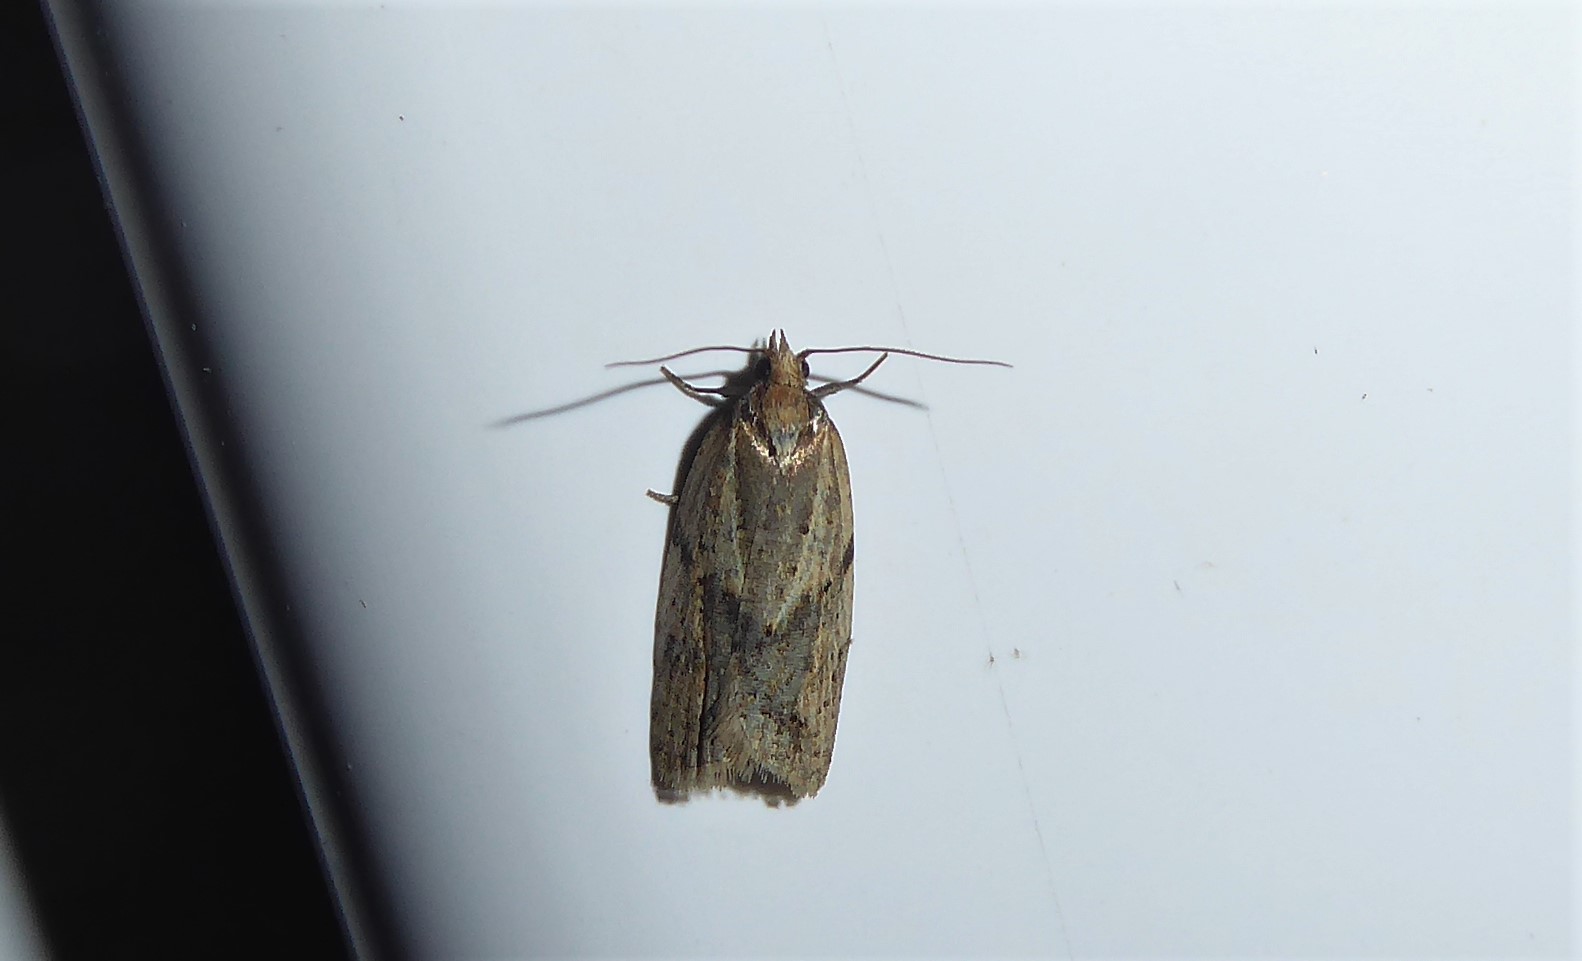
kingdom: Animalia
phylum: Arthropoda
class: Insecta
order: Lepidoptera
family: Tortricidae
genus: Clepsis
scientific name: Clepsis
